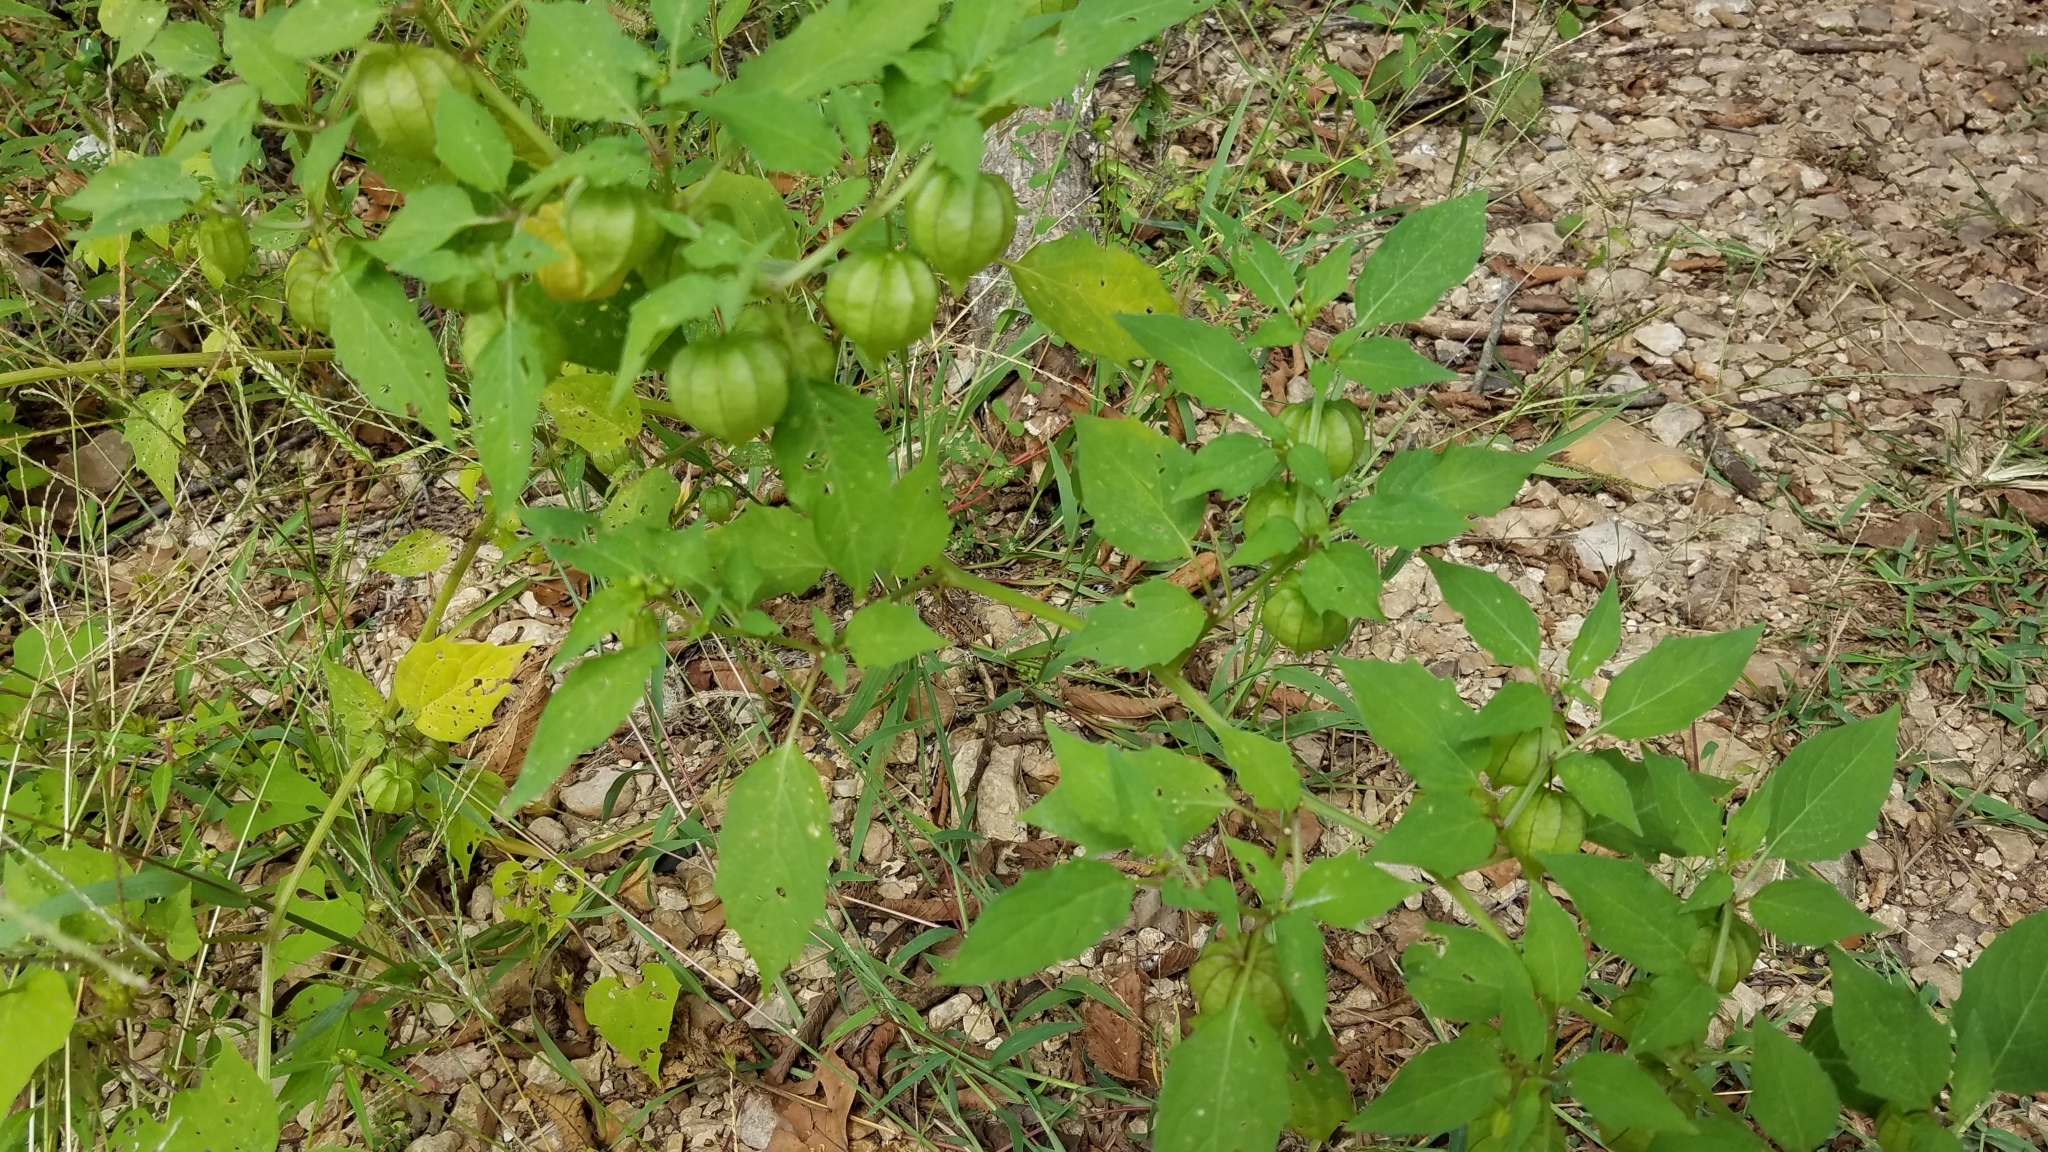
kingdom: Plantae
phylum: Tracheophyta
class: Magnoliopsida
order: Solanales
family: Solanaceae
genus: Physalis
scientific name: Physalis angulata
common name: Angular winter-cherry
